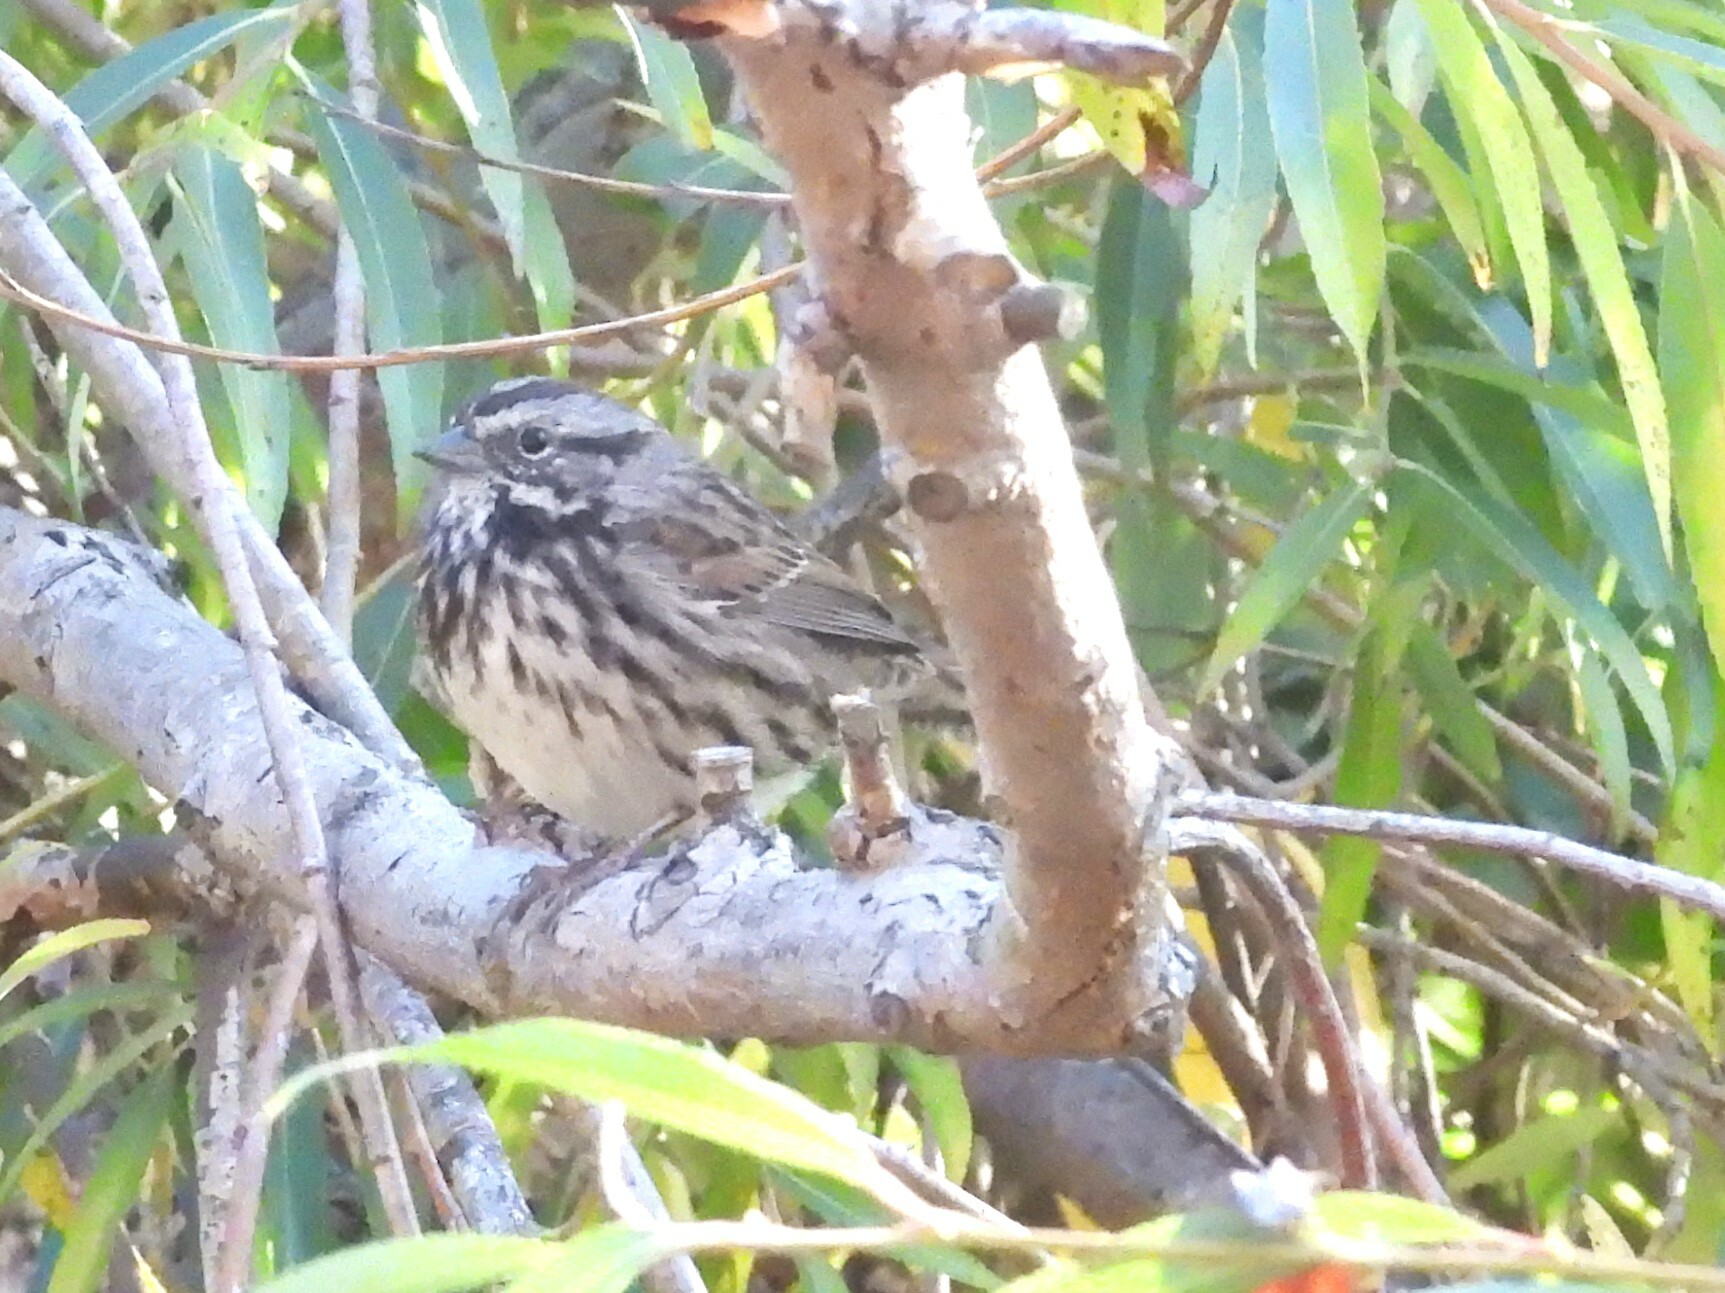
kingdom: Animalia
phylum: Chordata
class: Aves
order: Passeriformes
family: Passerellidae
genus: Melospiza
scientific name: Melospiza melodia
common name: Song sparrow
